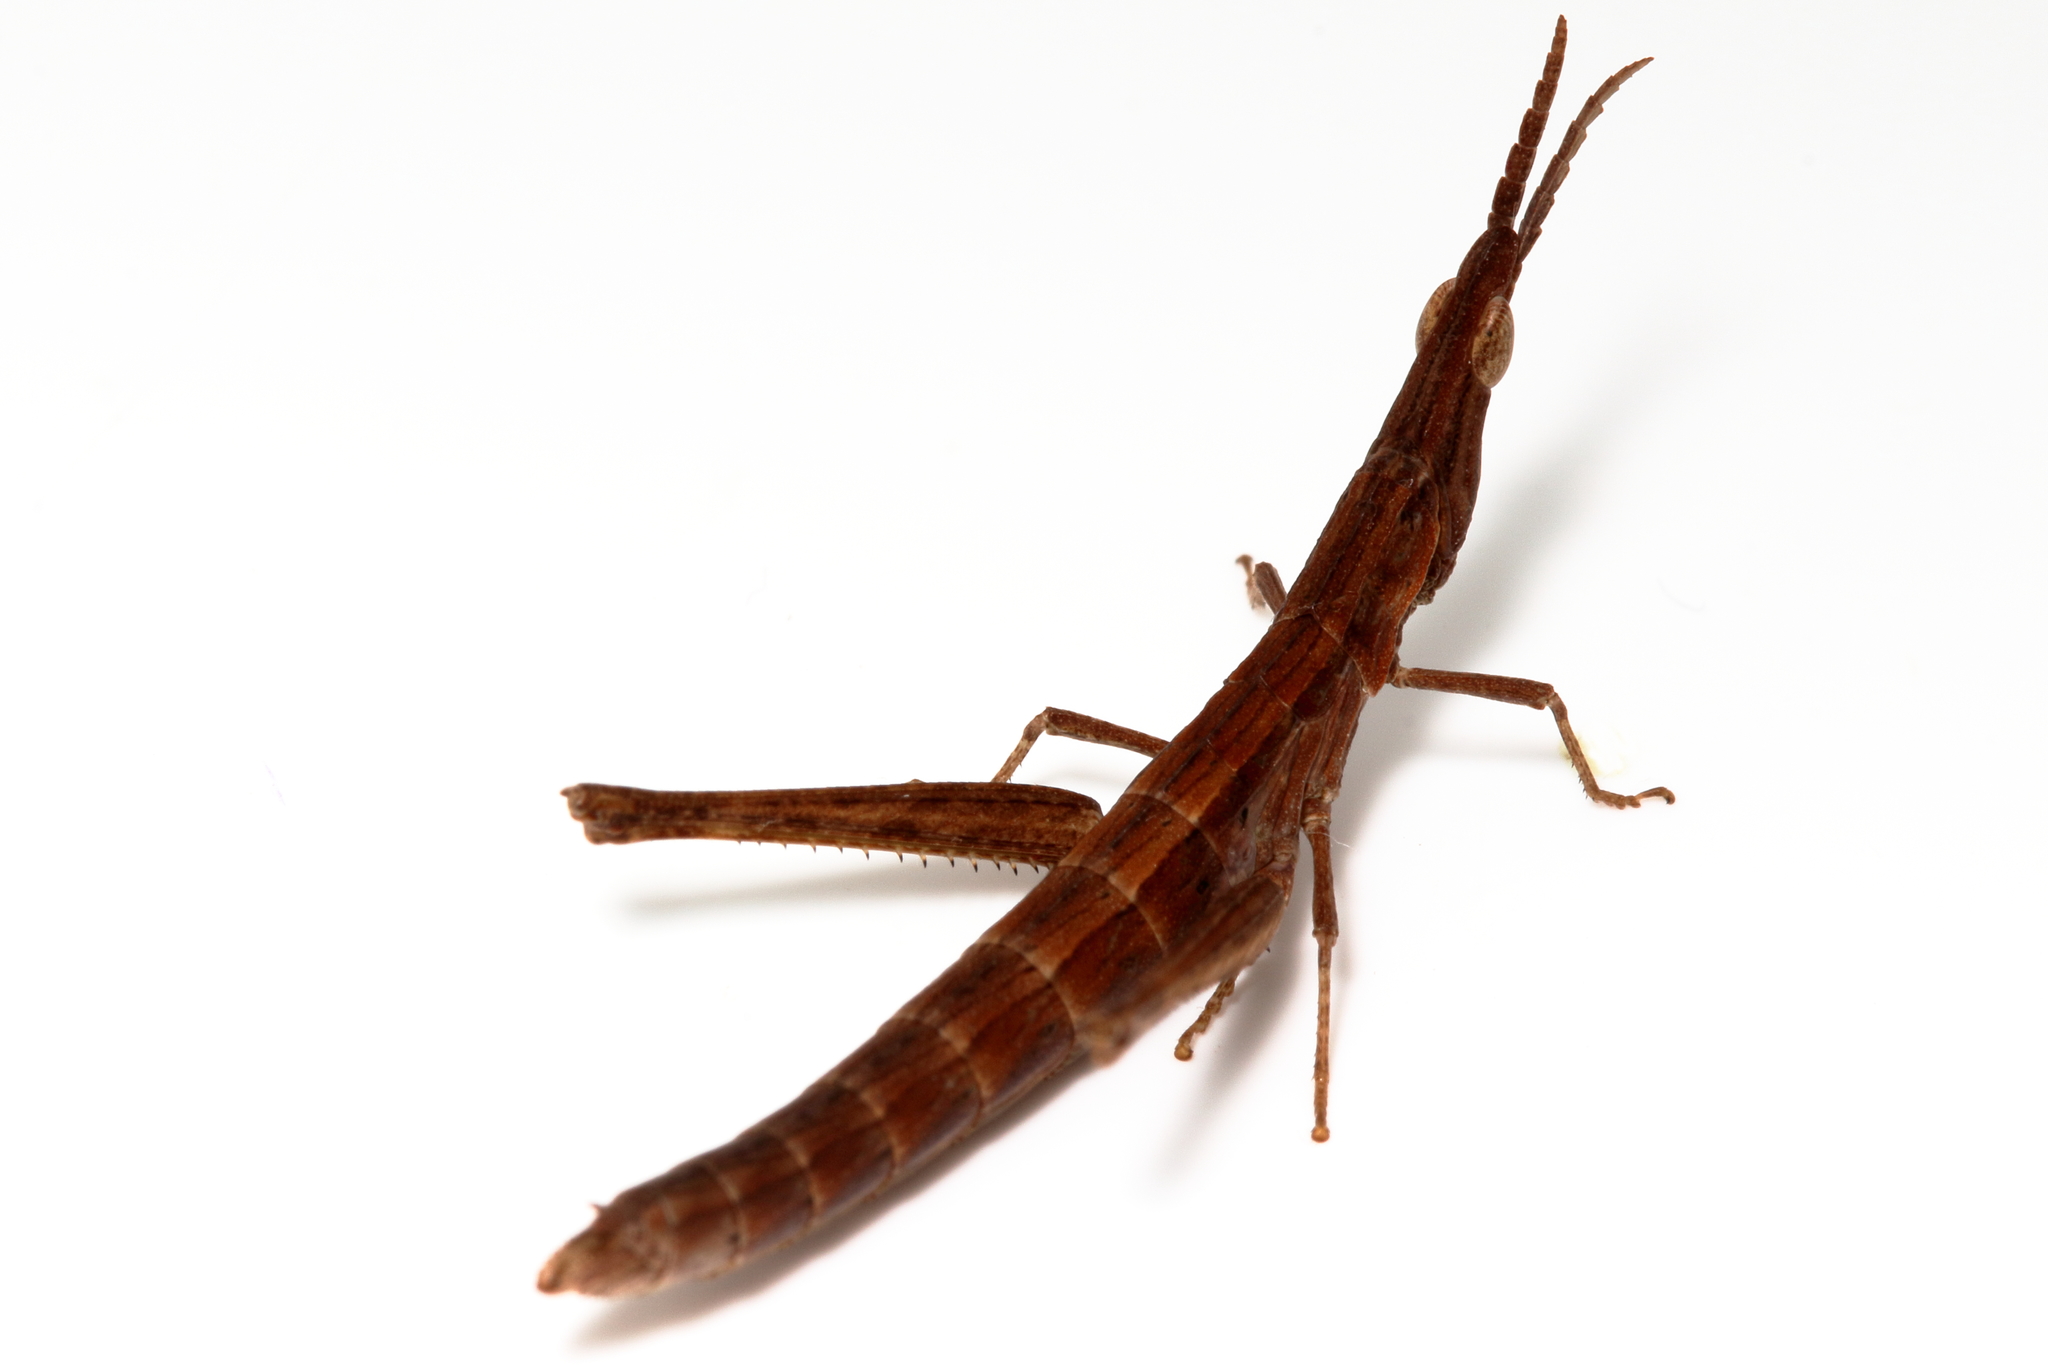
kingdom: Animalia
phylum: Arthropoda
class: Insecta
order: Orthoptera
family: Morabidae
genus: Vandiemenella
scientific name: Vandiemenella viatica
